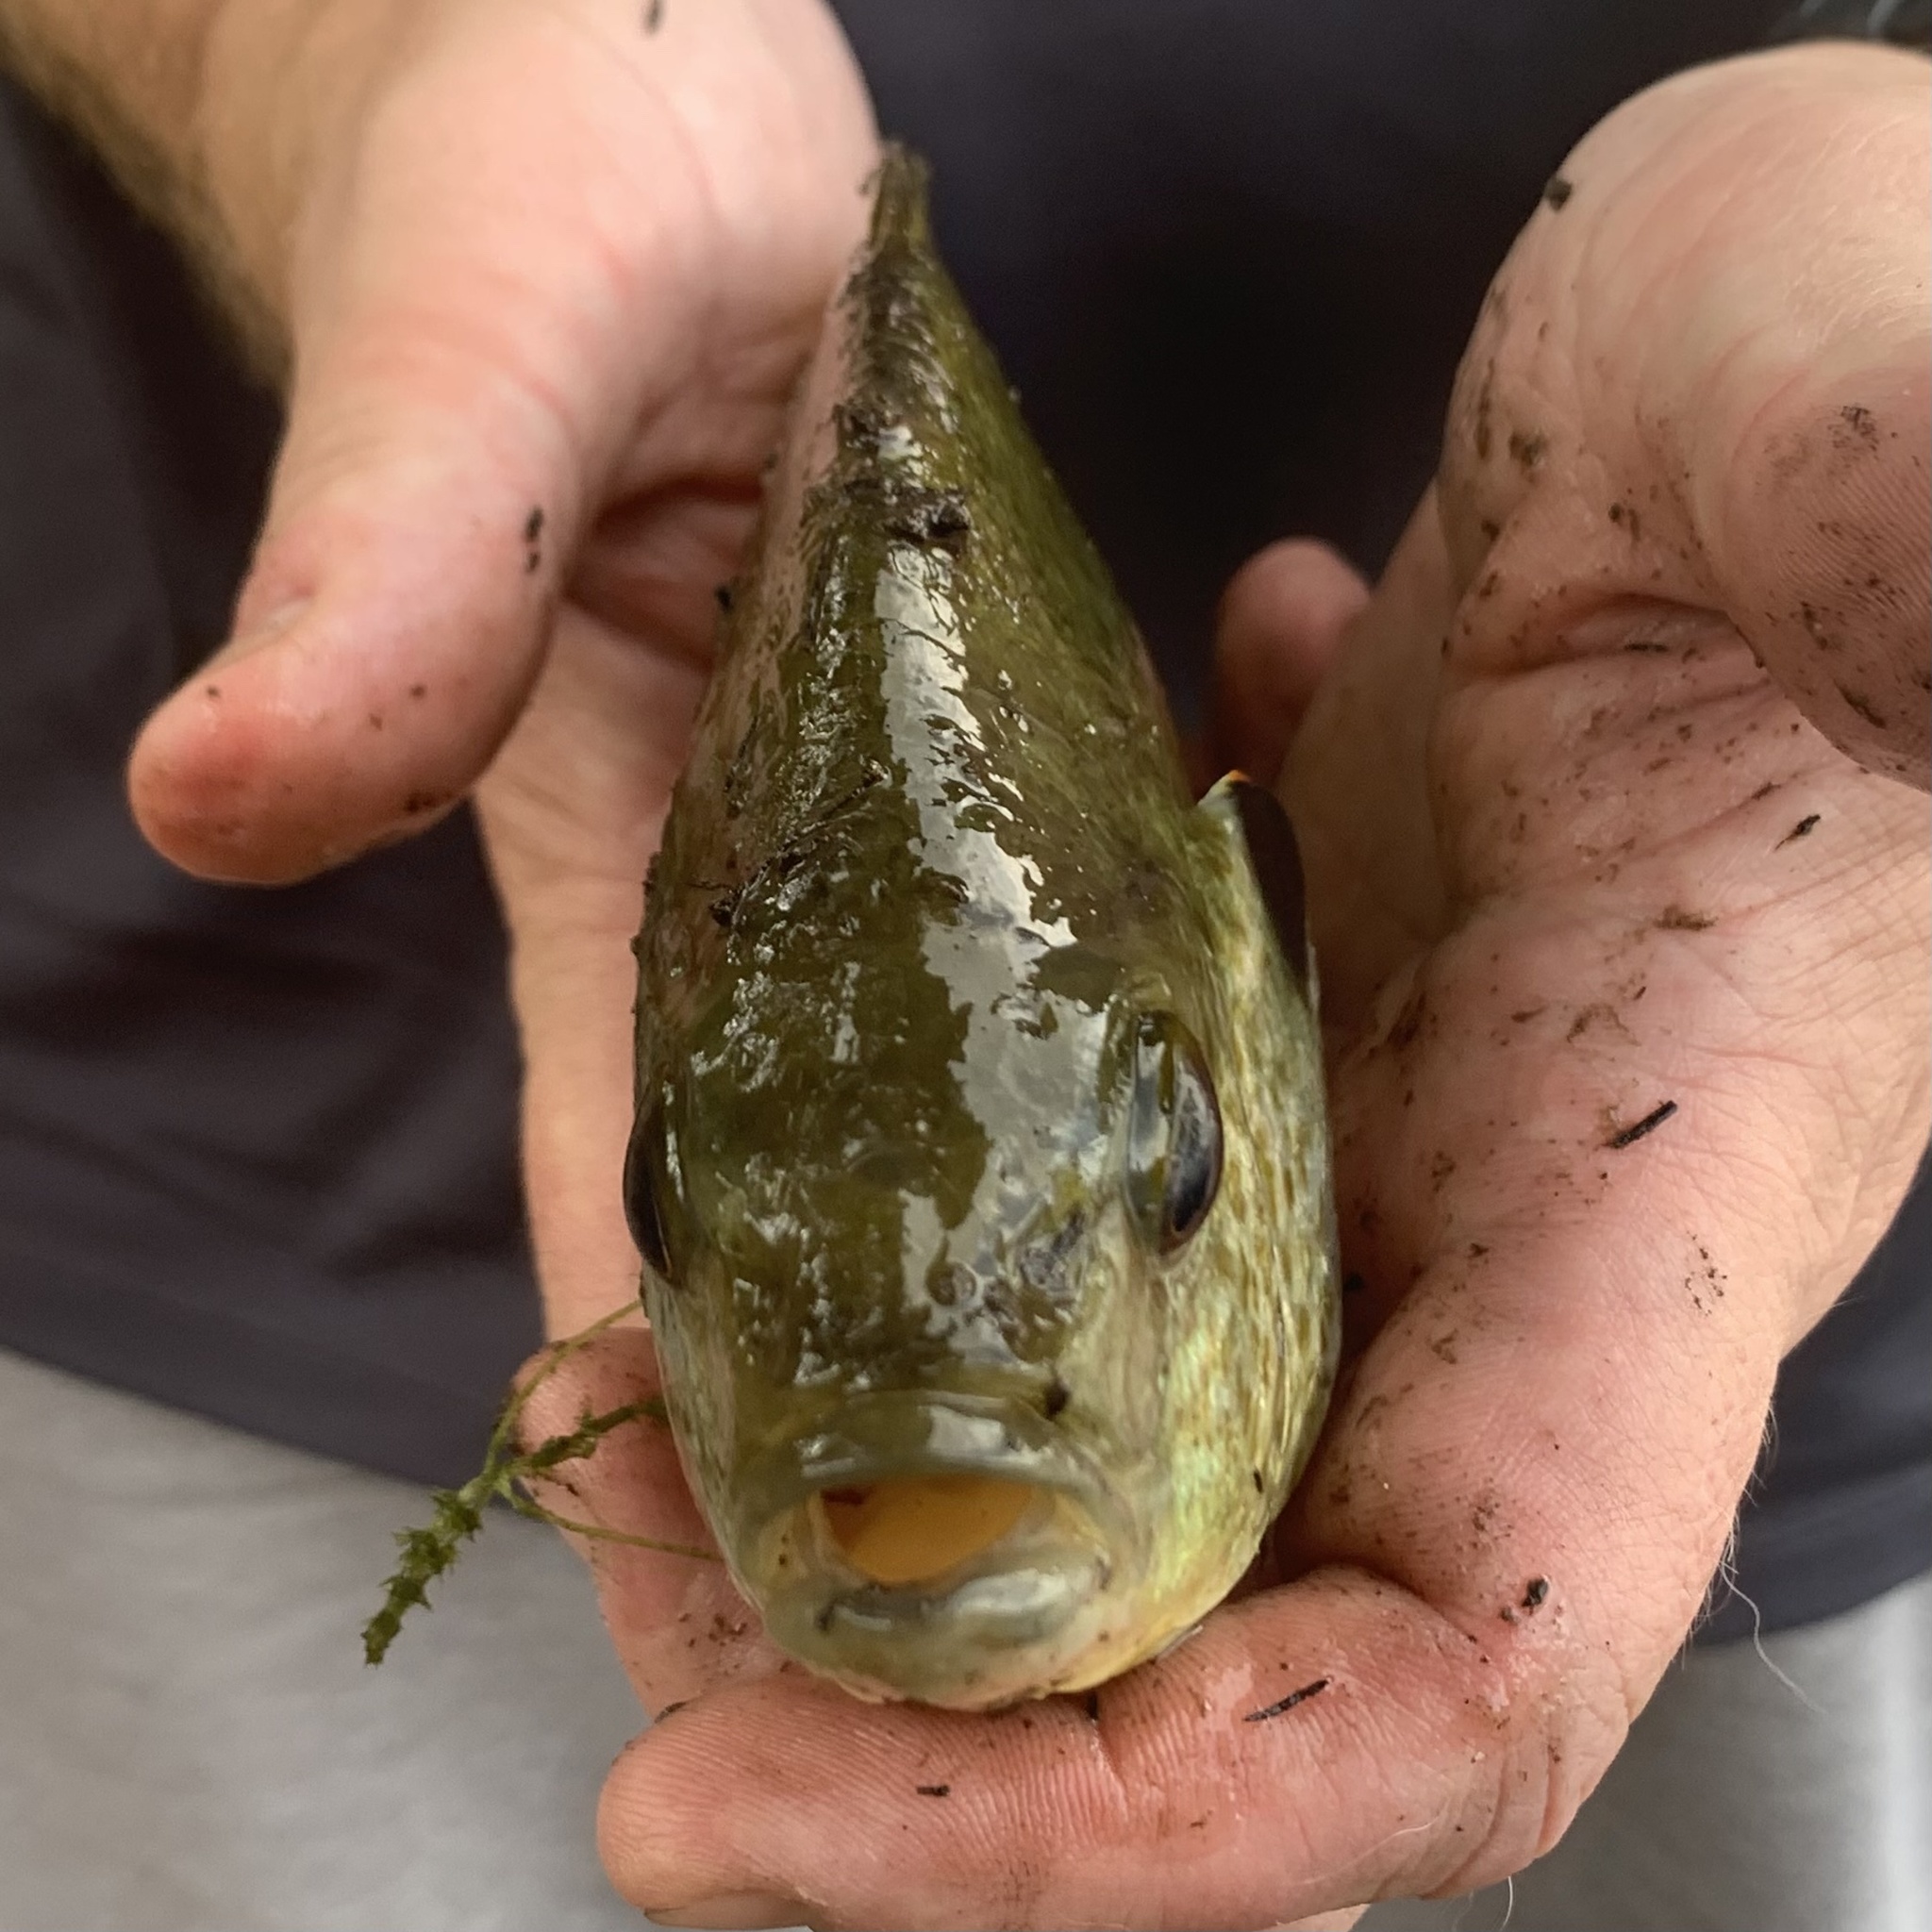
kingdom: Animalia
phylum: Chordata
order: Perciformes
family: Centrarchidae
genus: Lepomis
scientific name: Lepomis microlophus
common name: Redear sunfish
